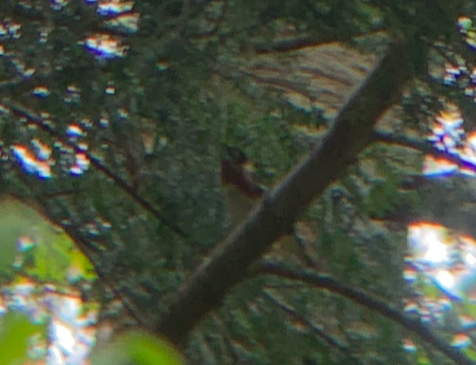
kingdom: Animalia
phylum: Chordata
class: Aves
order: Passeriformes
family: Parulidae
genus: Setophaga
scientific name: Setophaga castanea
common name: Bay-breasted warbler
